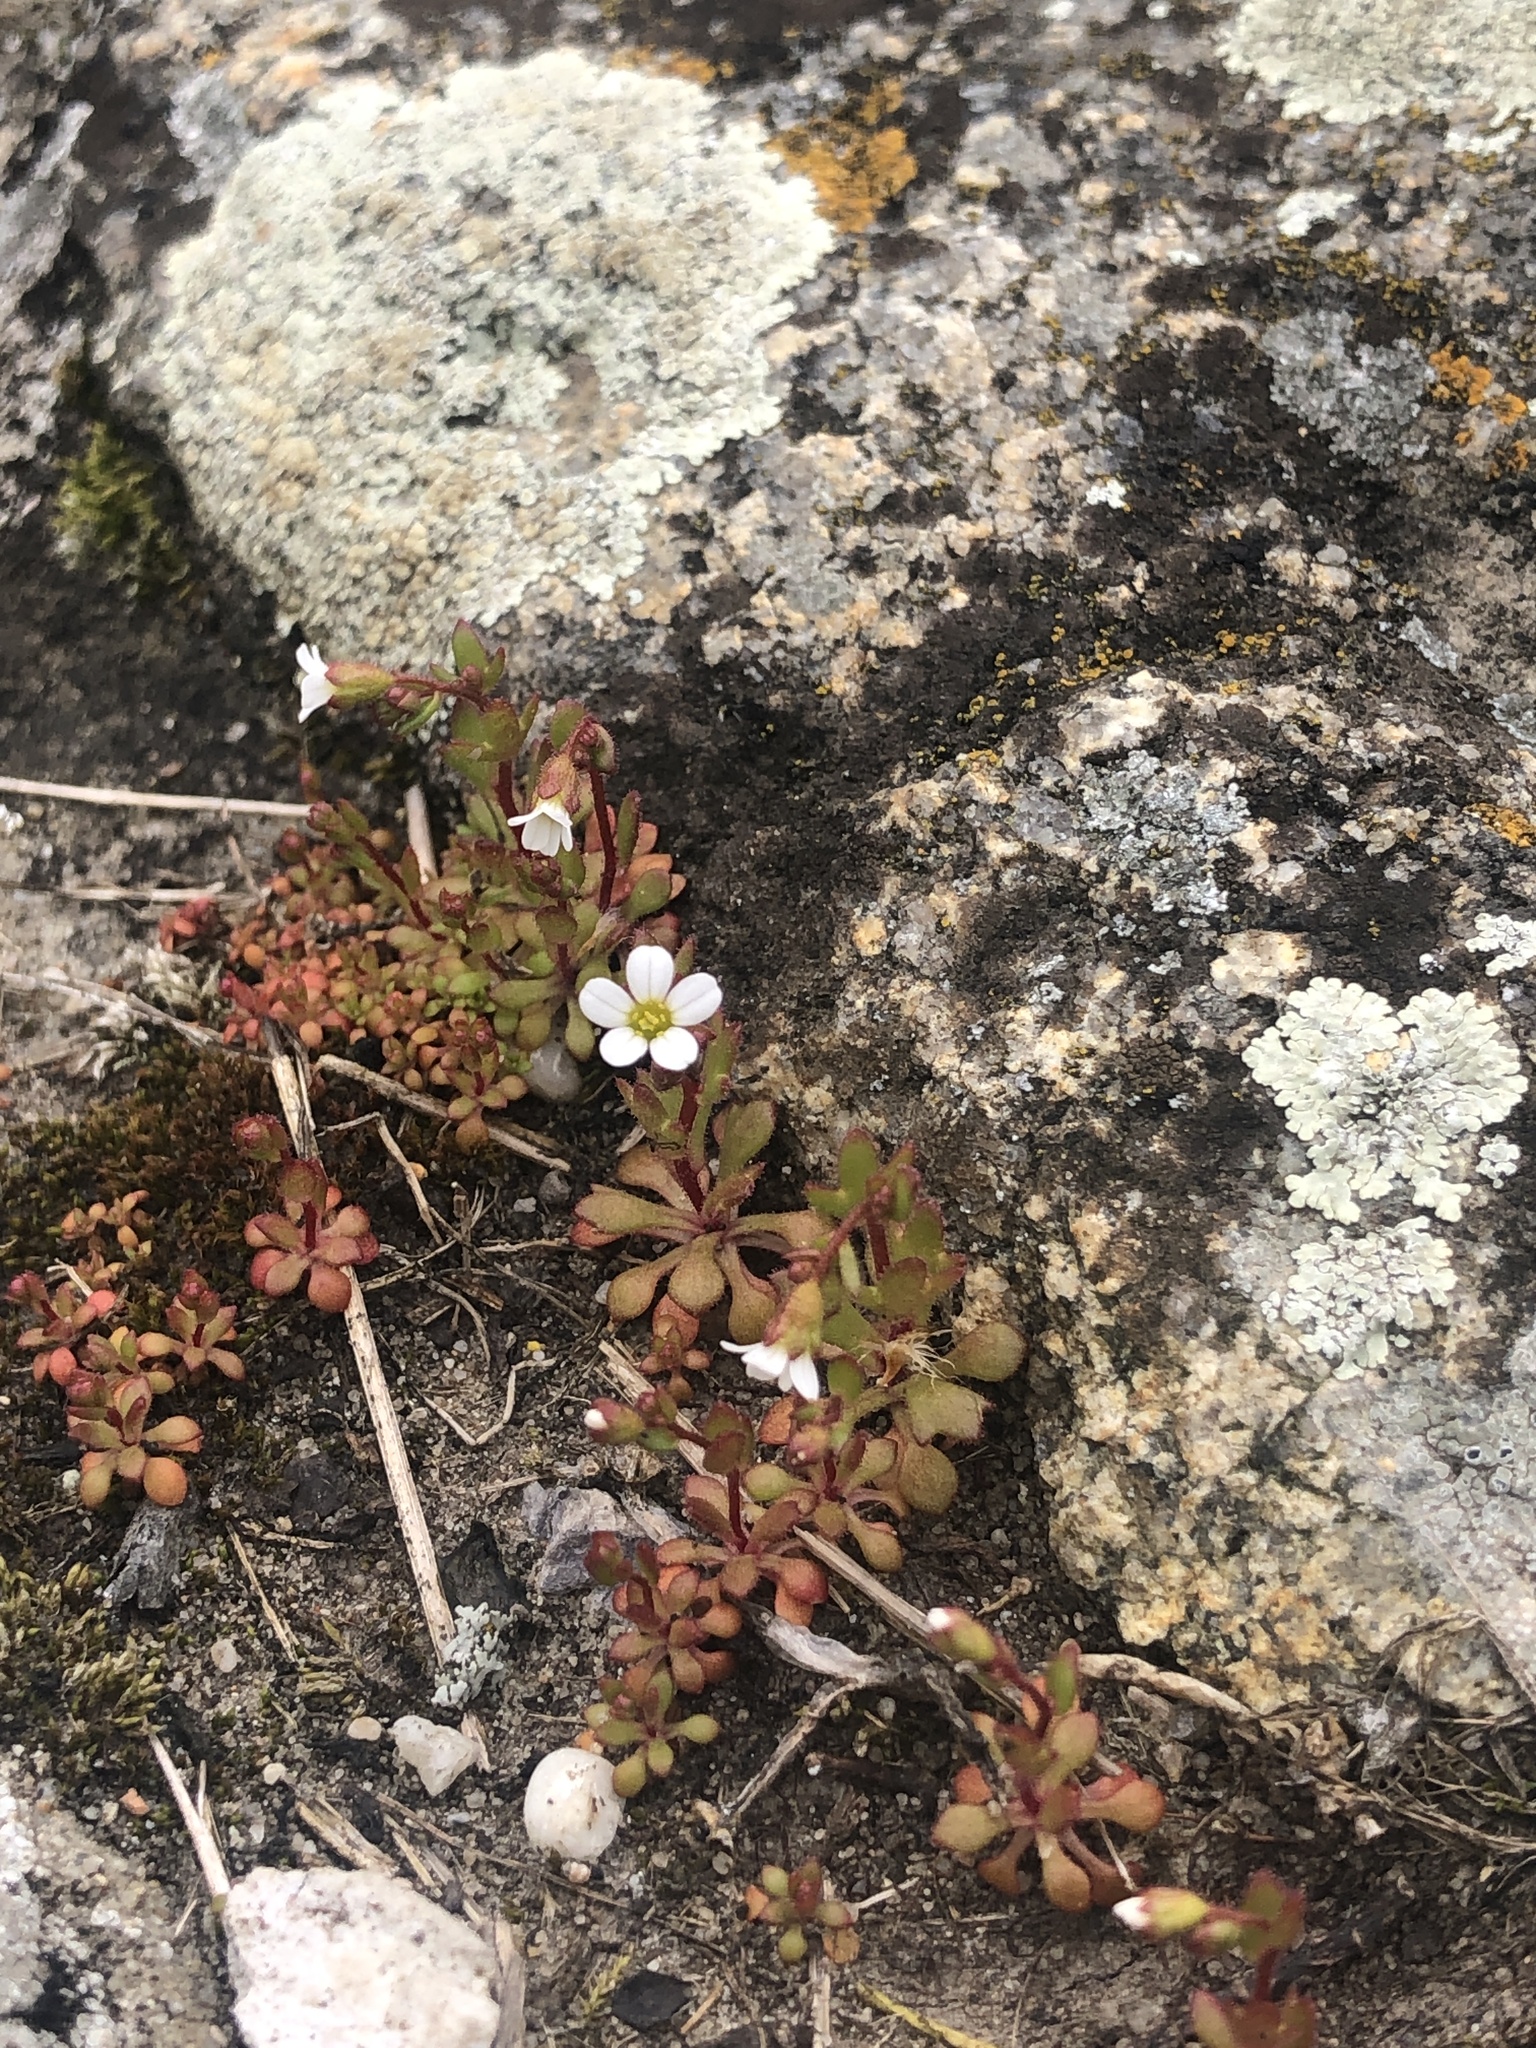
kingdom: Plantae
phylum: Tracheophyta
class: Magnoliopsida
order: Saxifragales
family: Saxifragaceae
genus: Saxifraga
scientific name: Saxifraga tridactylites
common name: Rue-leaved saxifrage
